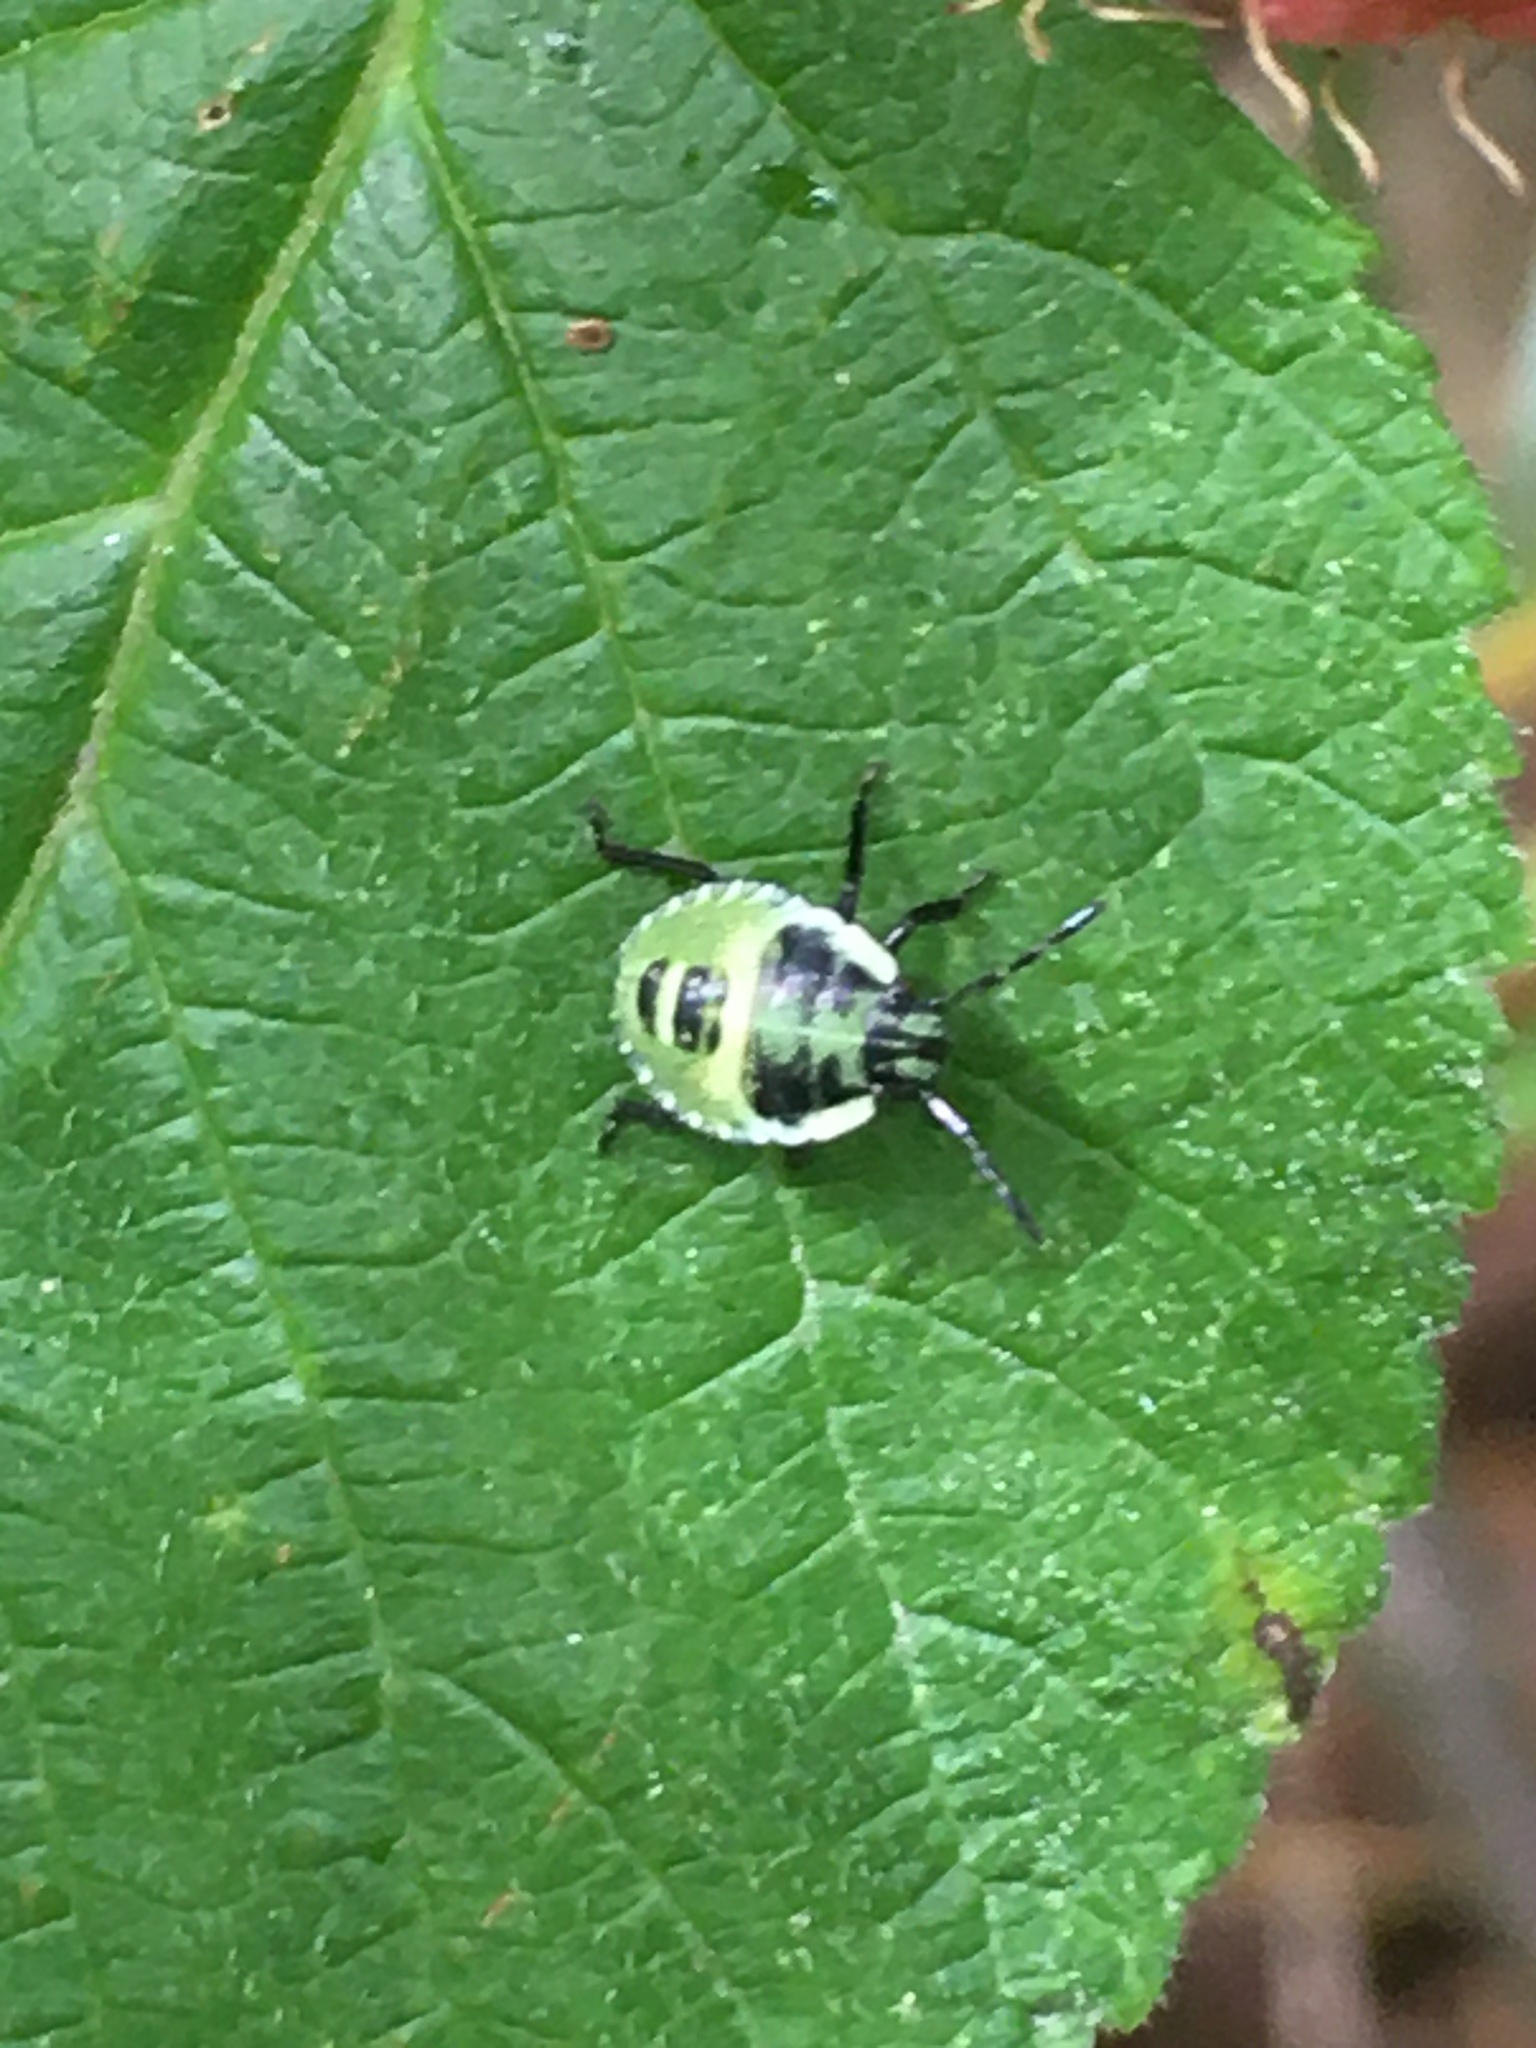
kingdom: Animalia
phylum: Arthropoda
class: Insecta
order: Hemiptera
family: Pentatomidae
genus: Palomena
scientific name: Palomena prasina
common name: Green shieldbug
